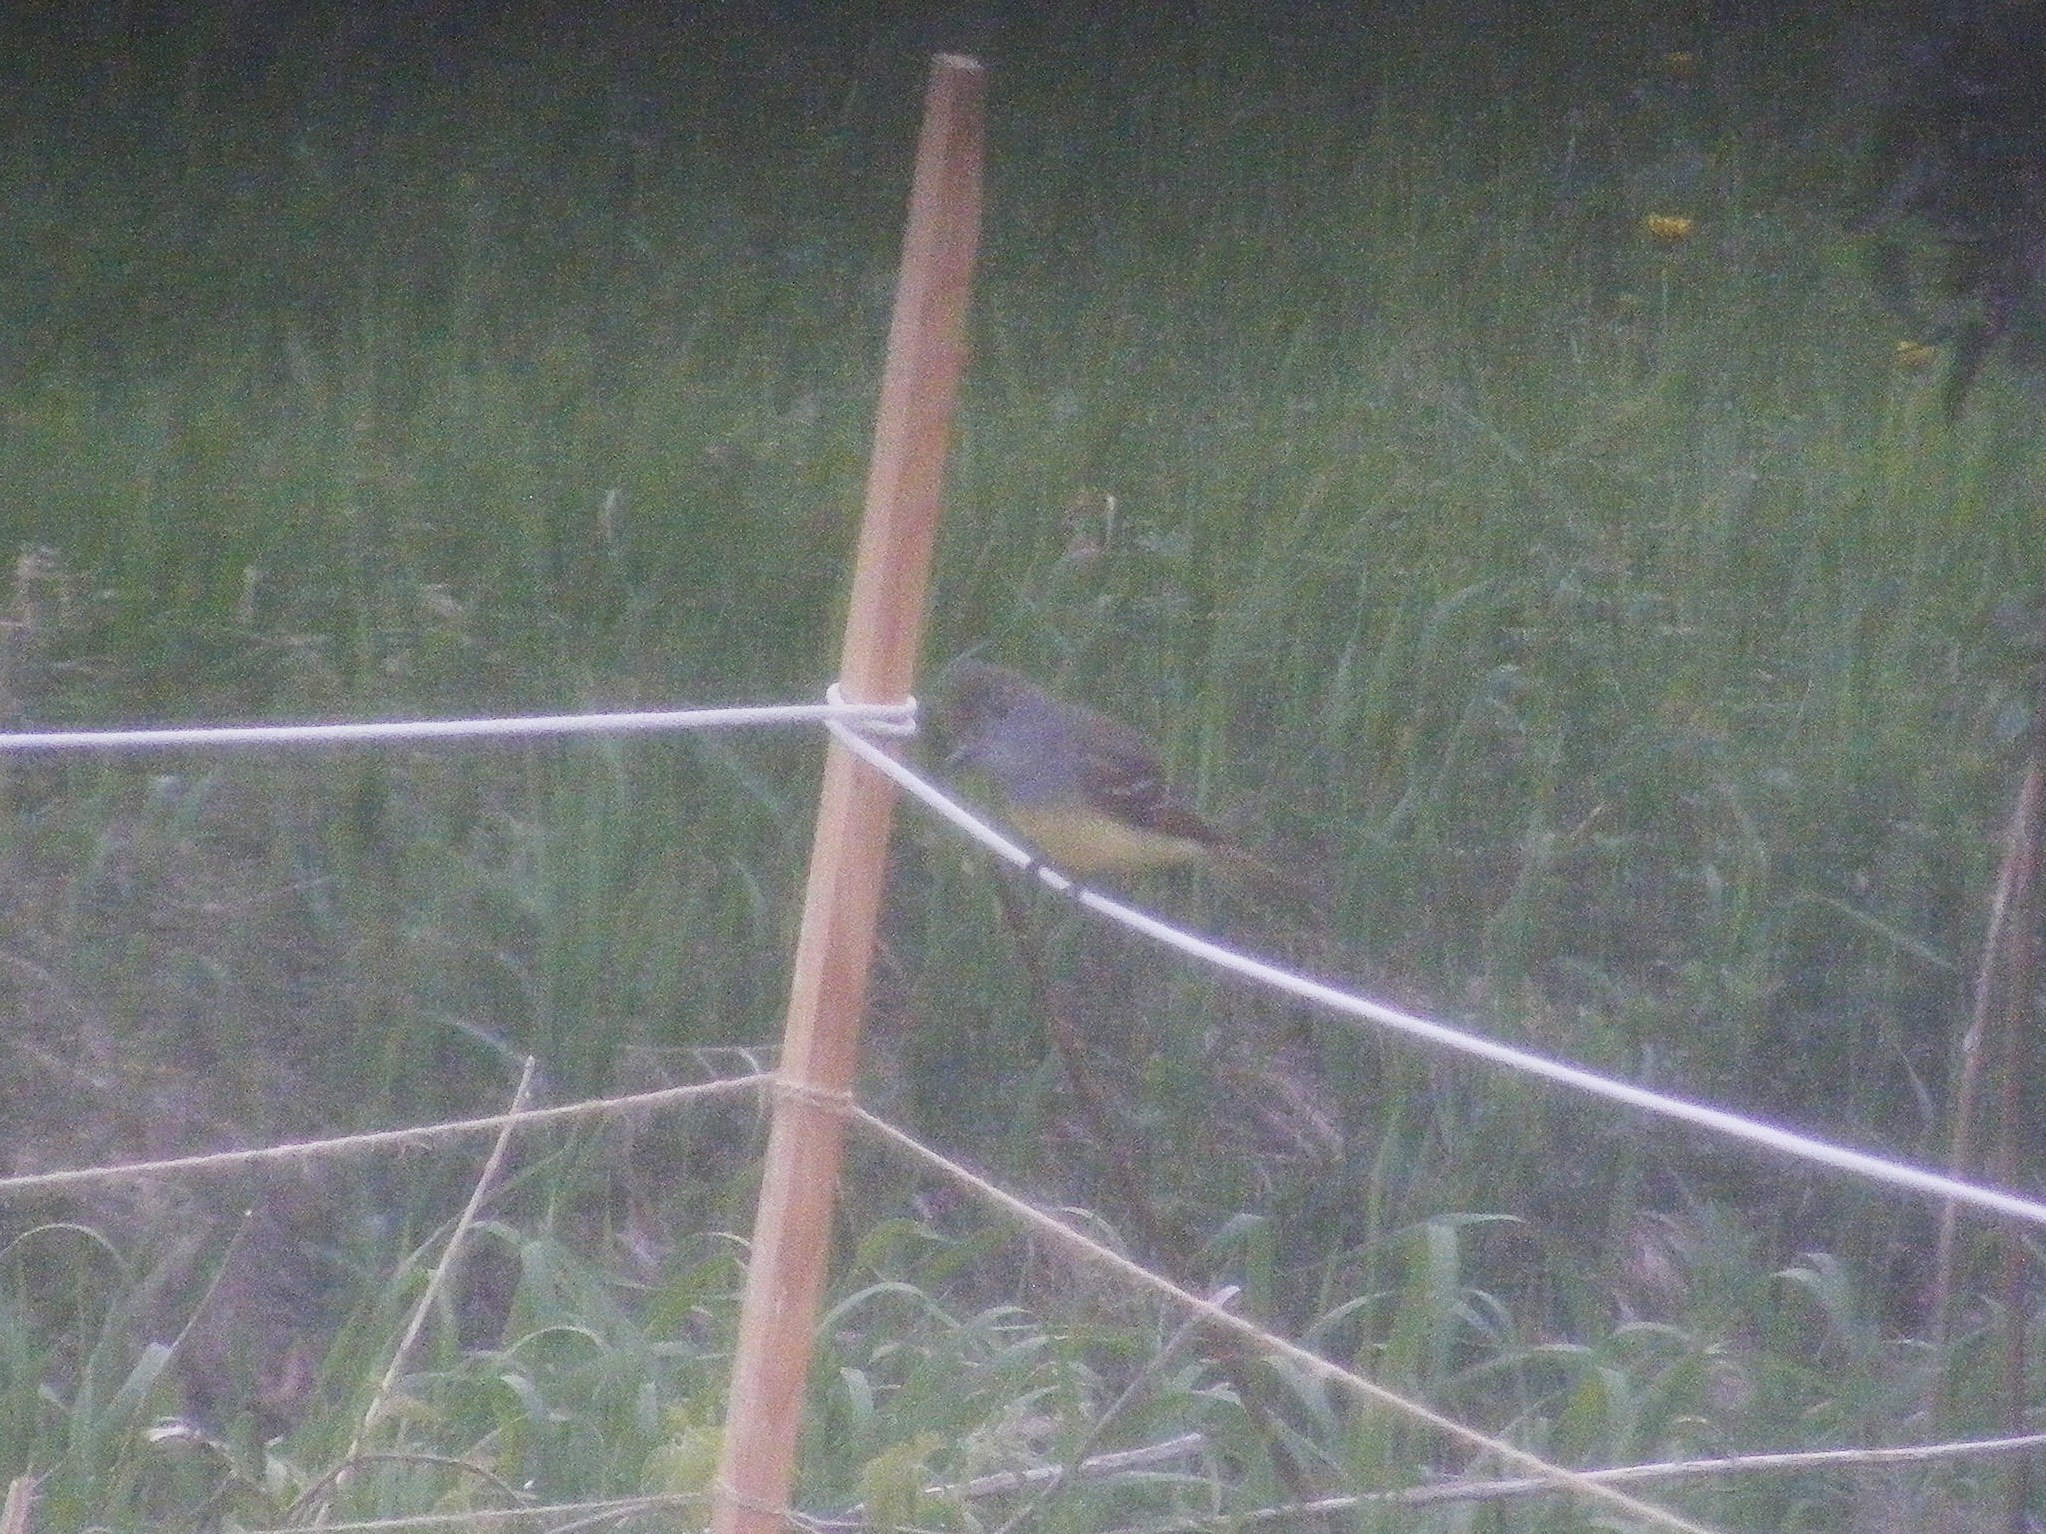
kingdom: Animalia
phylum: Chordata
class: Aves
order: Passeriformes
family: Tyrannidae
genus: Myiarchus
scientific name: Myiarchus crinitus
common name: Great crested flycatcher
